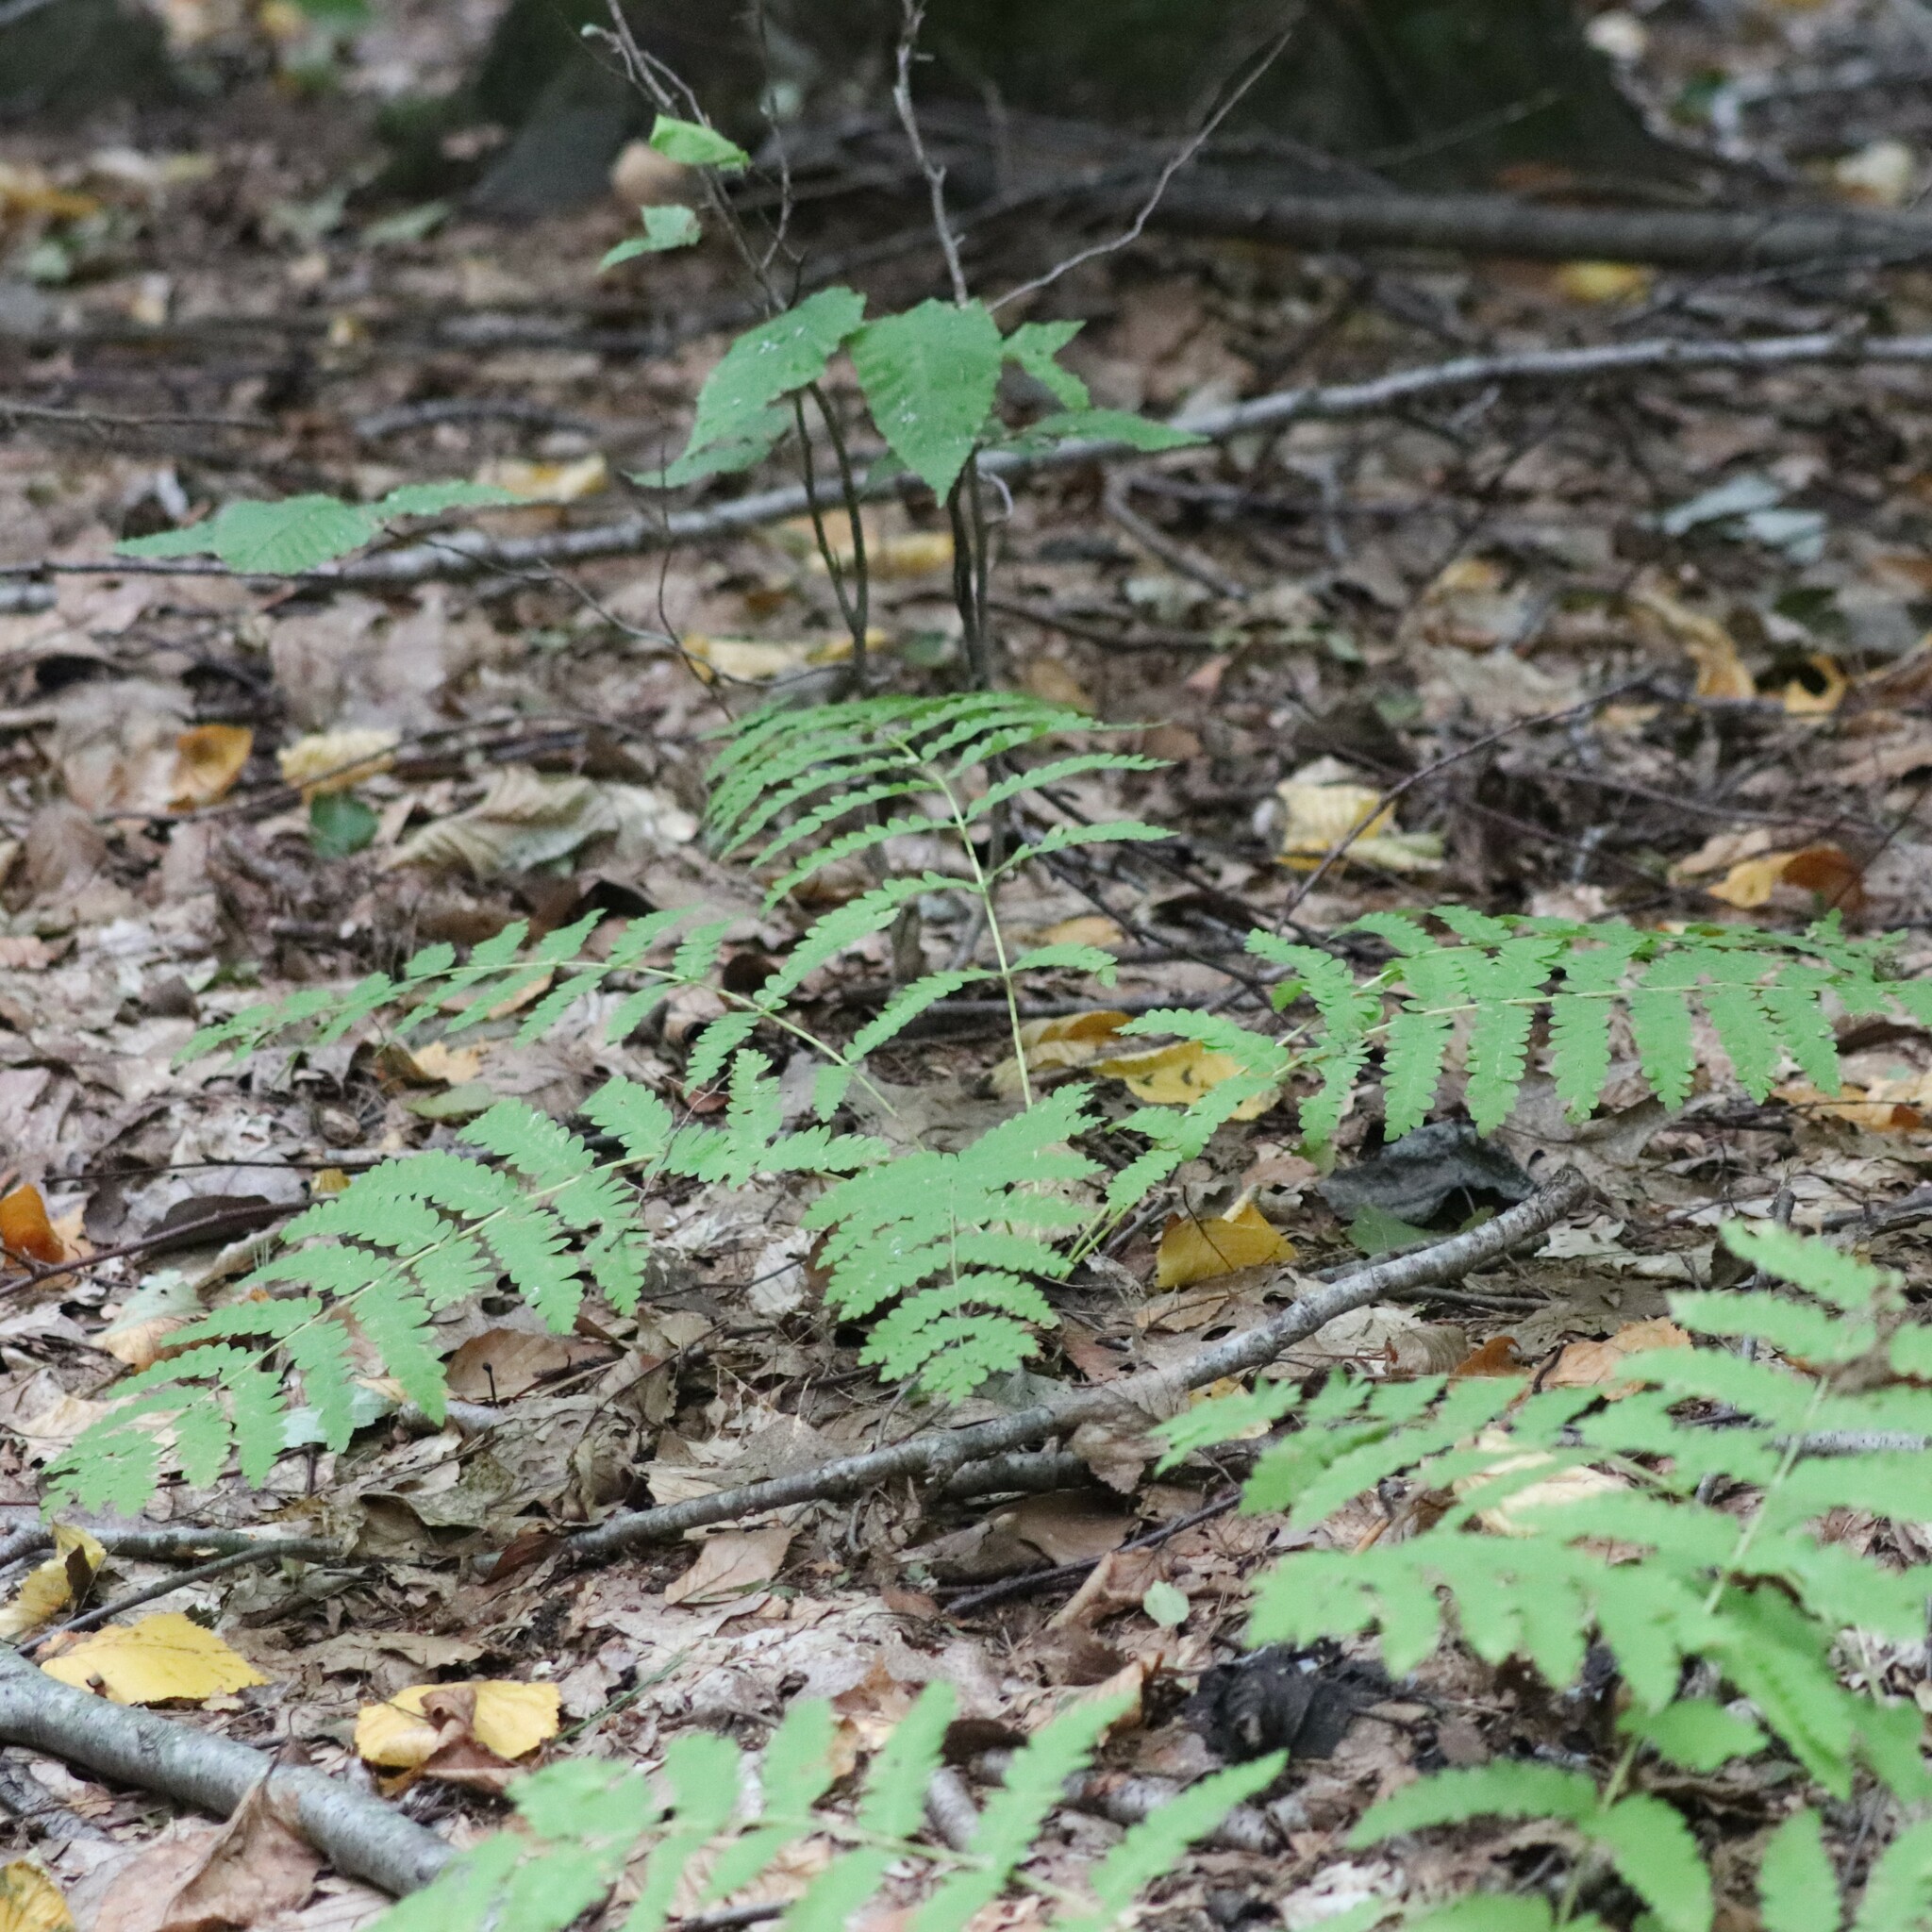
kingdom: Plantae
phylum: Tracheophyta
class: Polypodiopsida
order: Osmundales
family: Osmundaceae
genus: Claytosmunda
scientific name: Claytosmunda claytoniana
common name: Clayton's fern
